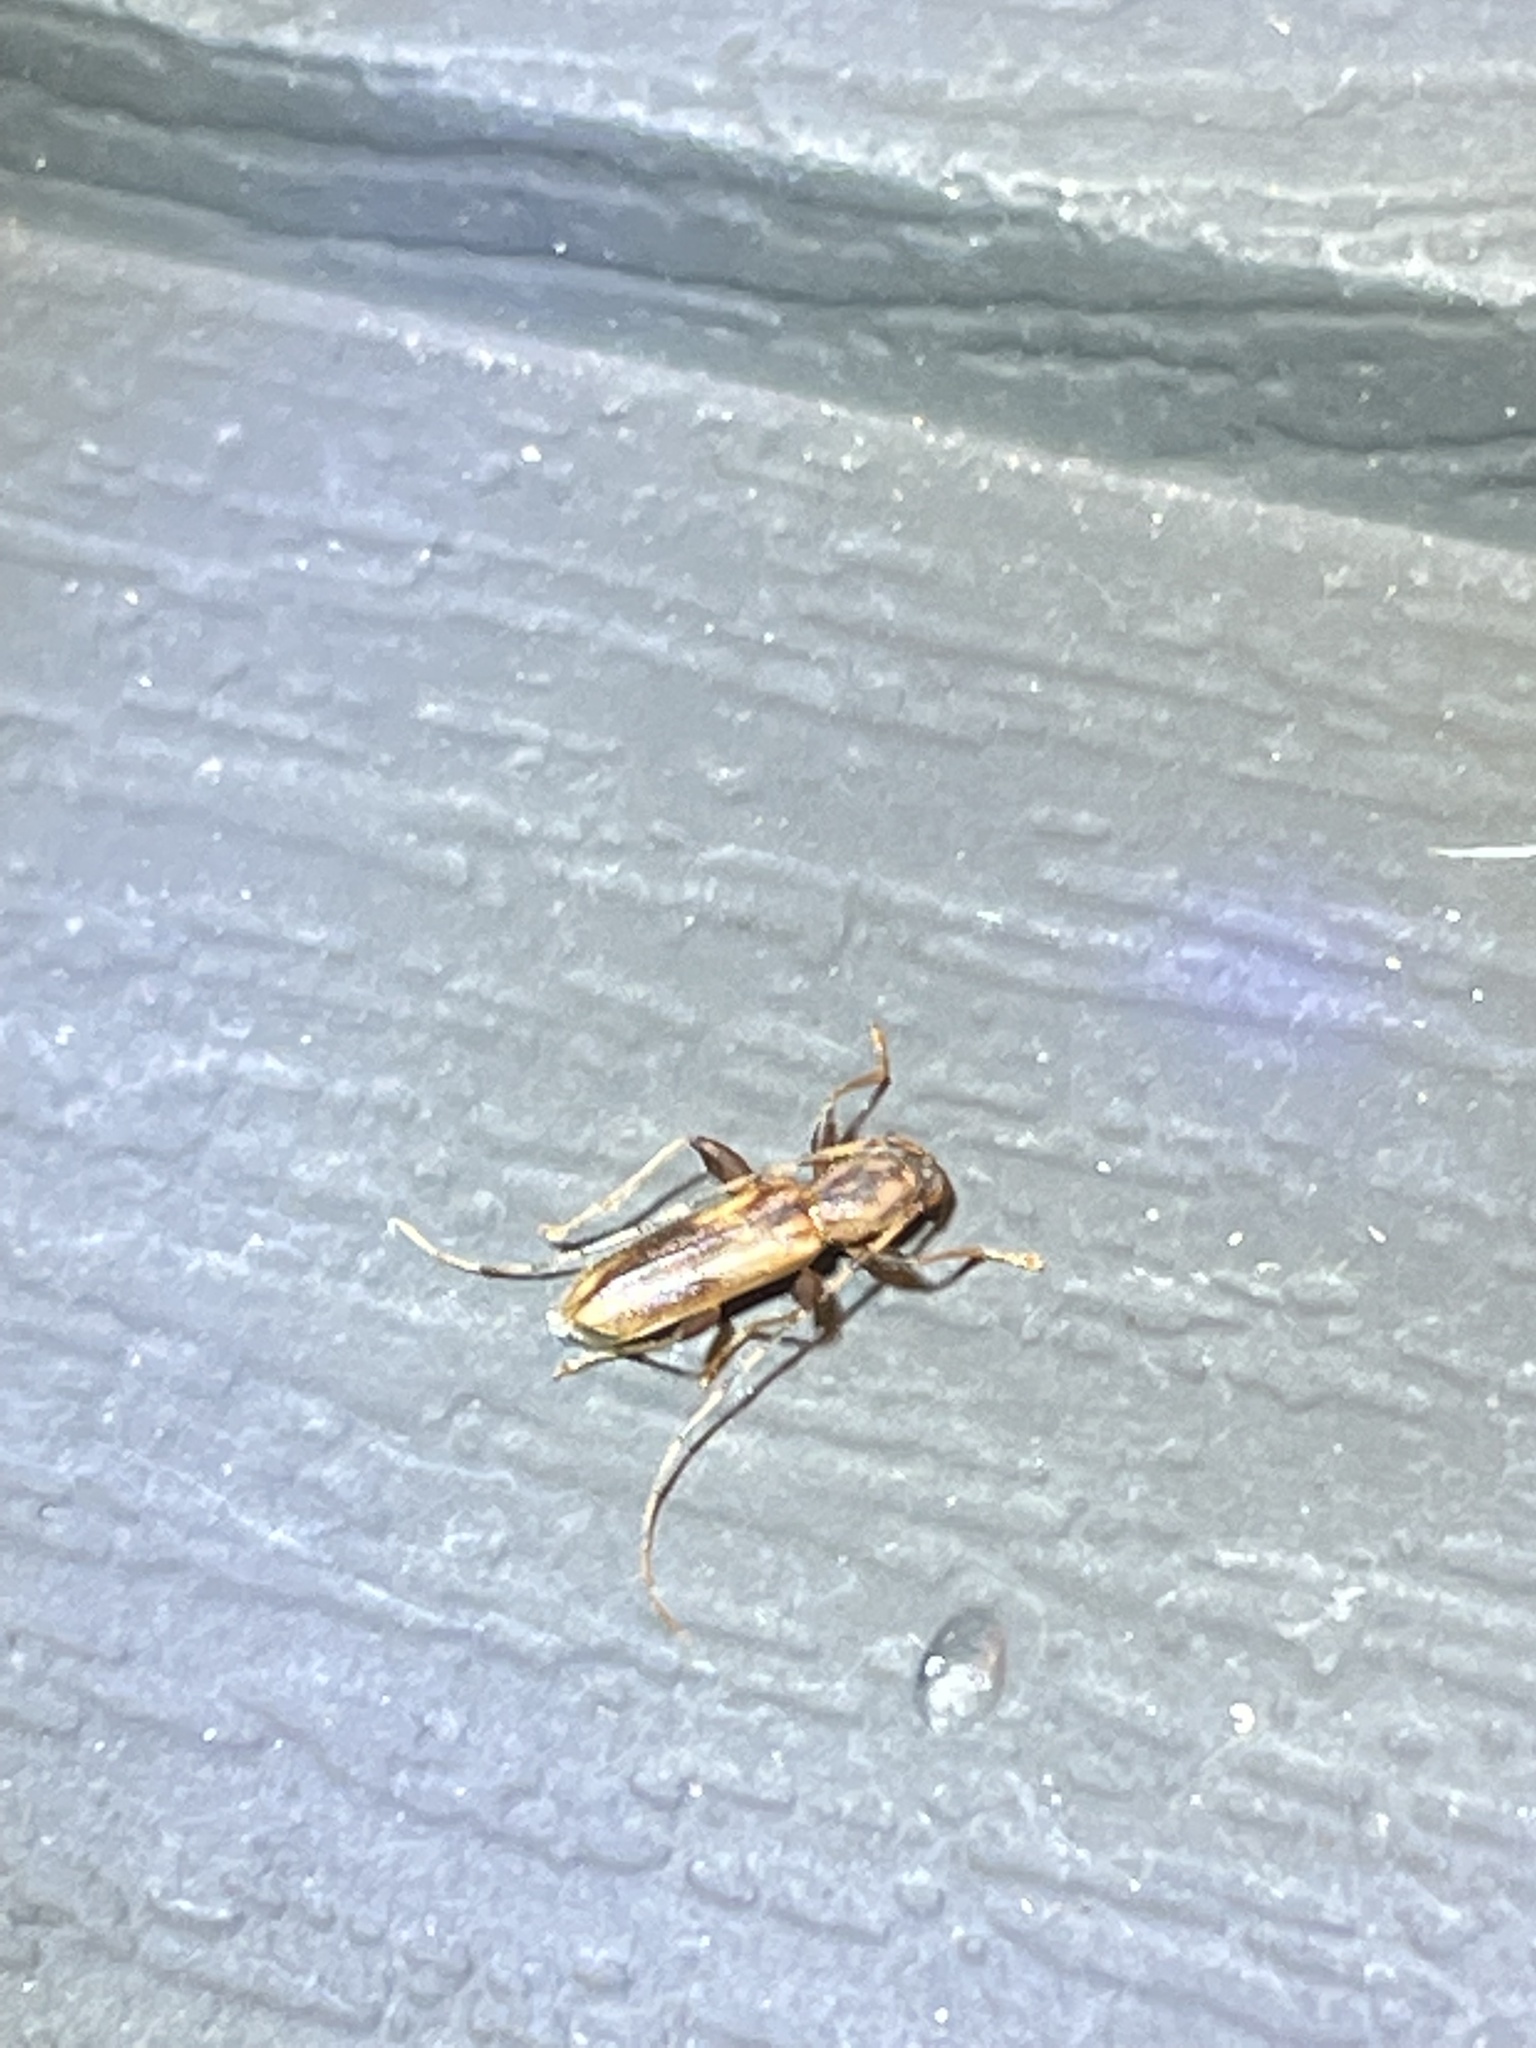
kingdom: Animalia
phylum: Arthropoda
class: Insecta
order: Coleoptera
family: Cerambycidae
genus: Curius
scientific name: Curius dentatus
